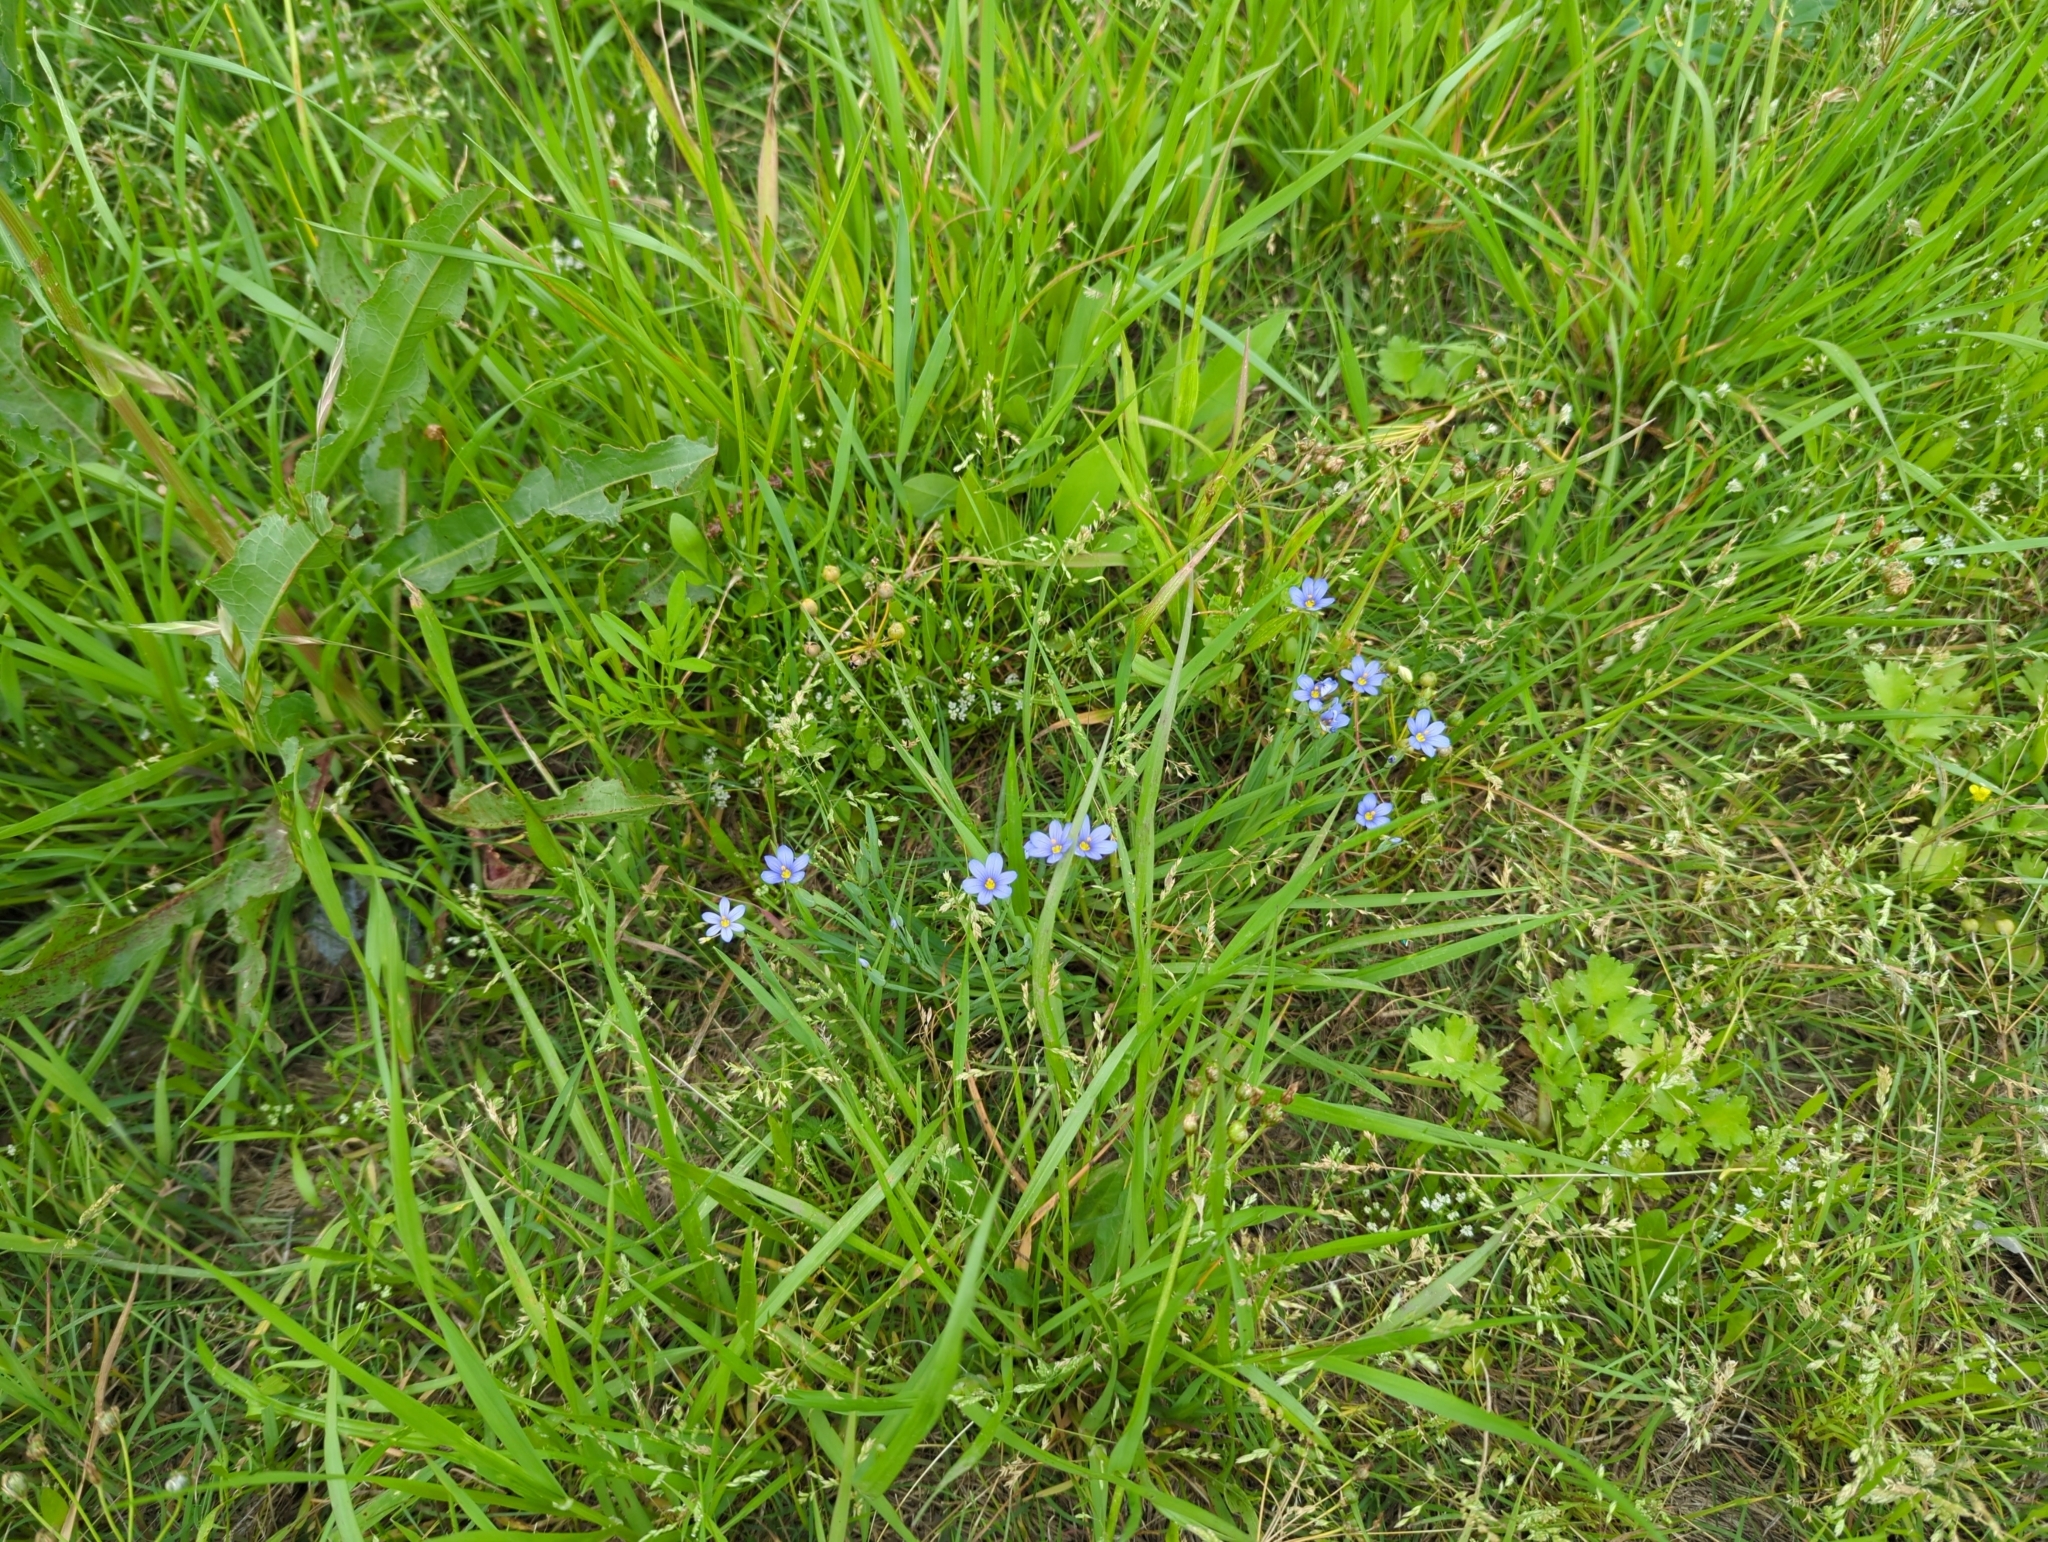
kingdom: Plantae
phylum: Tracheophyta
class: Liliopsida
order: Asparagales
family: Iridaceae
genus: Sisyrinchium
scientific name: Sisyrinchium pruinosum
